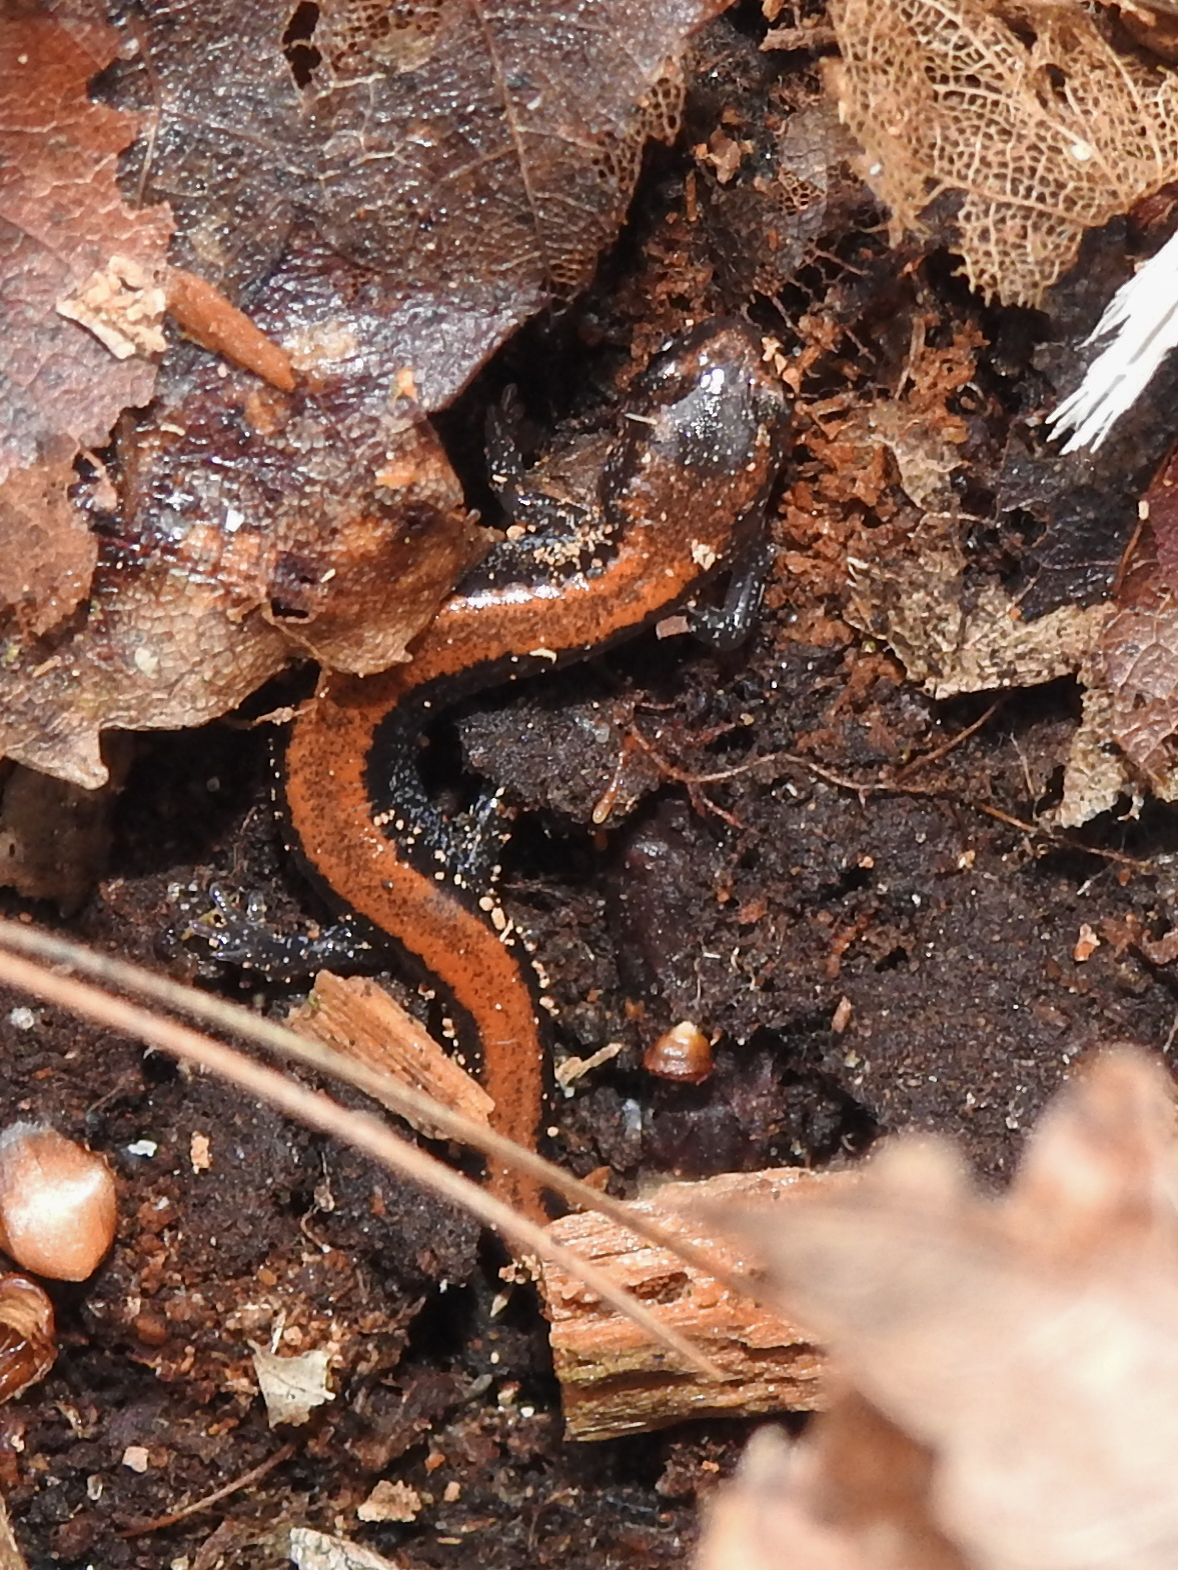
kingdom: Animalia
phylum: Chordata
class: Amphibia
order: Caudata
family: Plethodontidae
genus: Plethodon
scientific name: Plethodon cinereus
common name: Redback salamander
